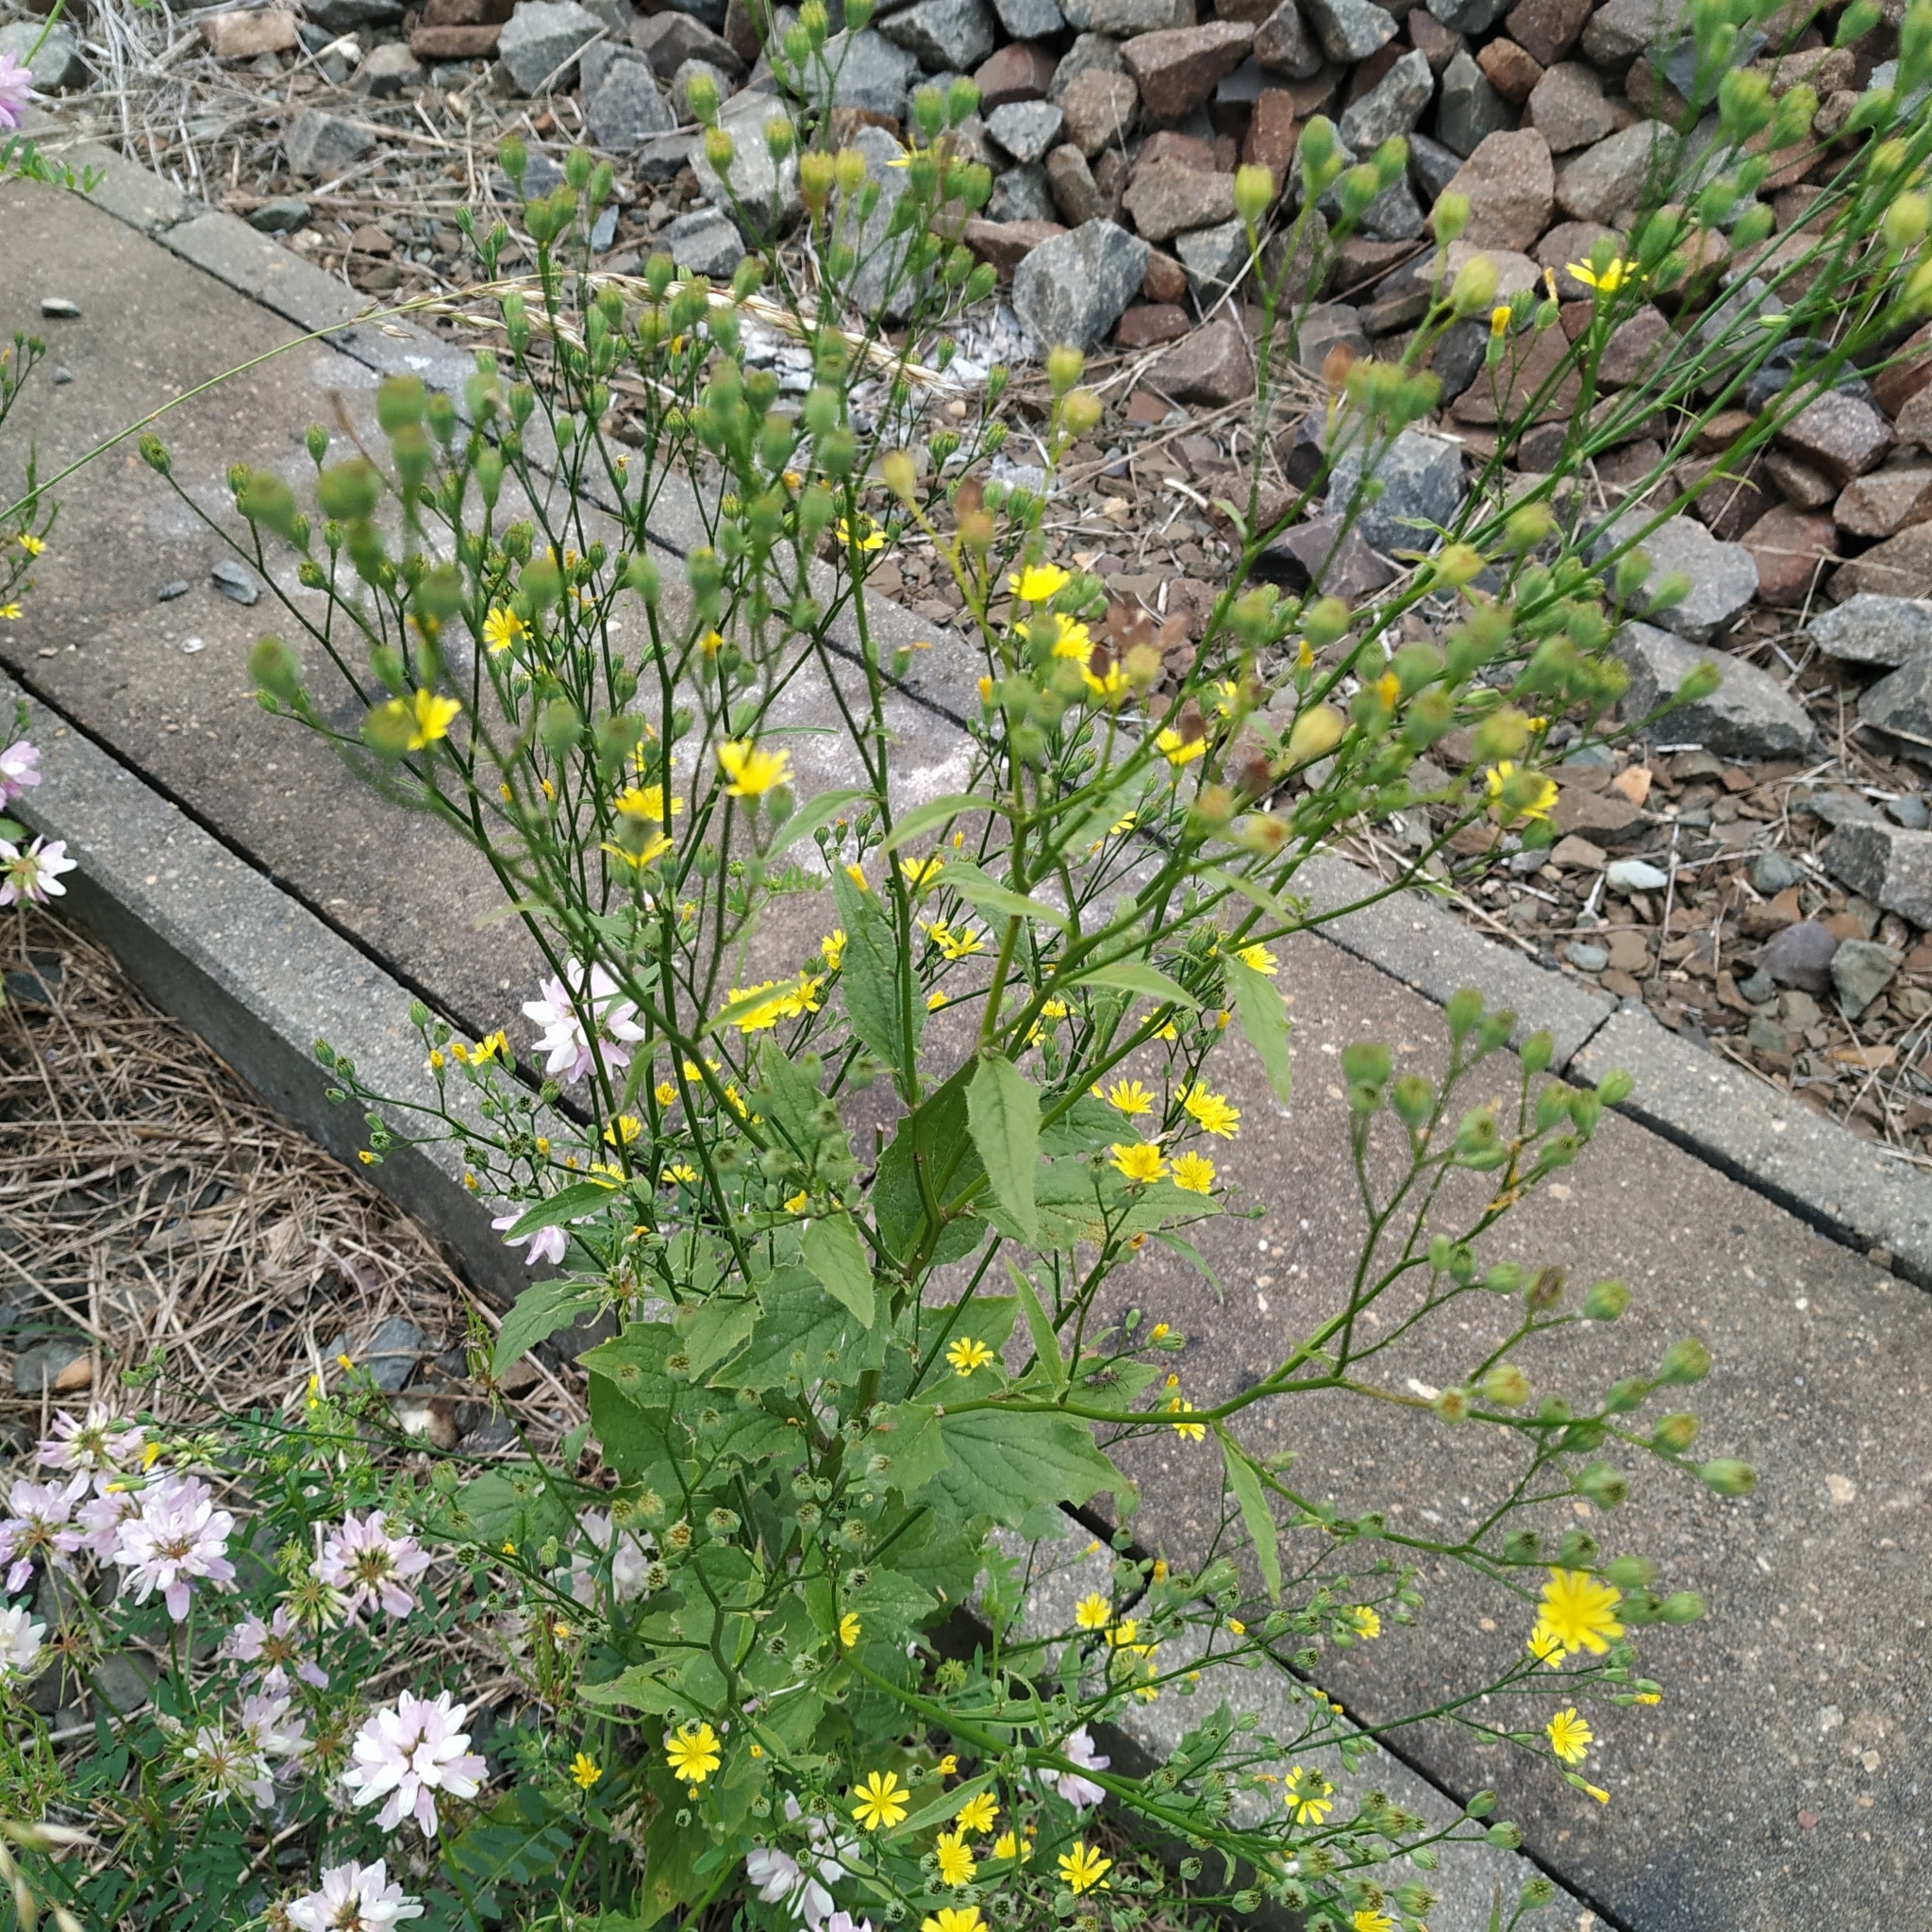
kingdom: Plantae
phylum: Tracheophyta
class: Magnoliopsida
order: Asterales
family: Asteraceae
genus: Lapsana
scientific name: Lapsana communis
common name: Nipplewort
